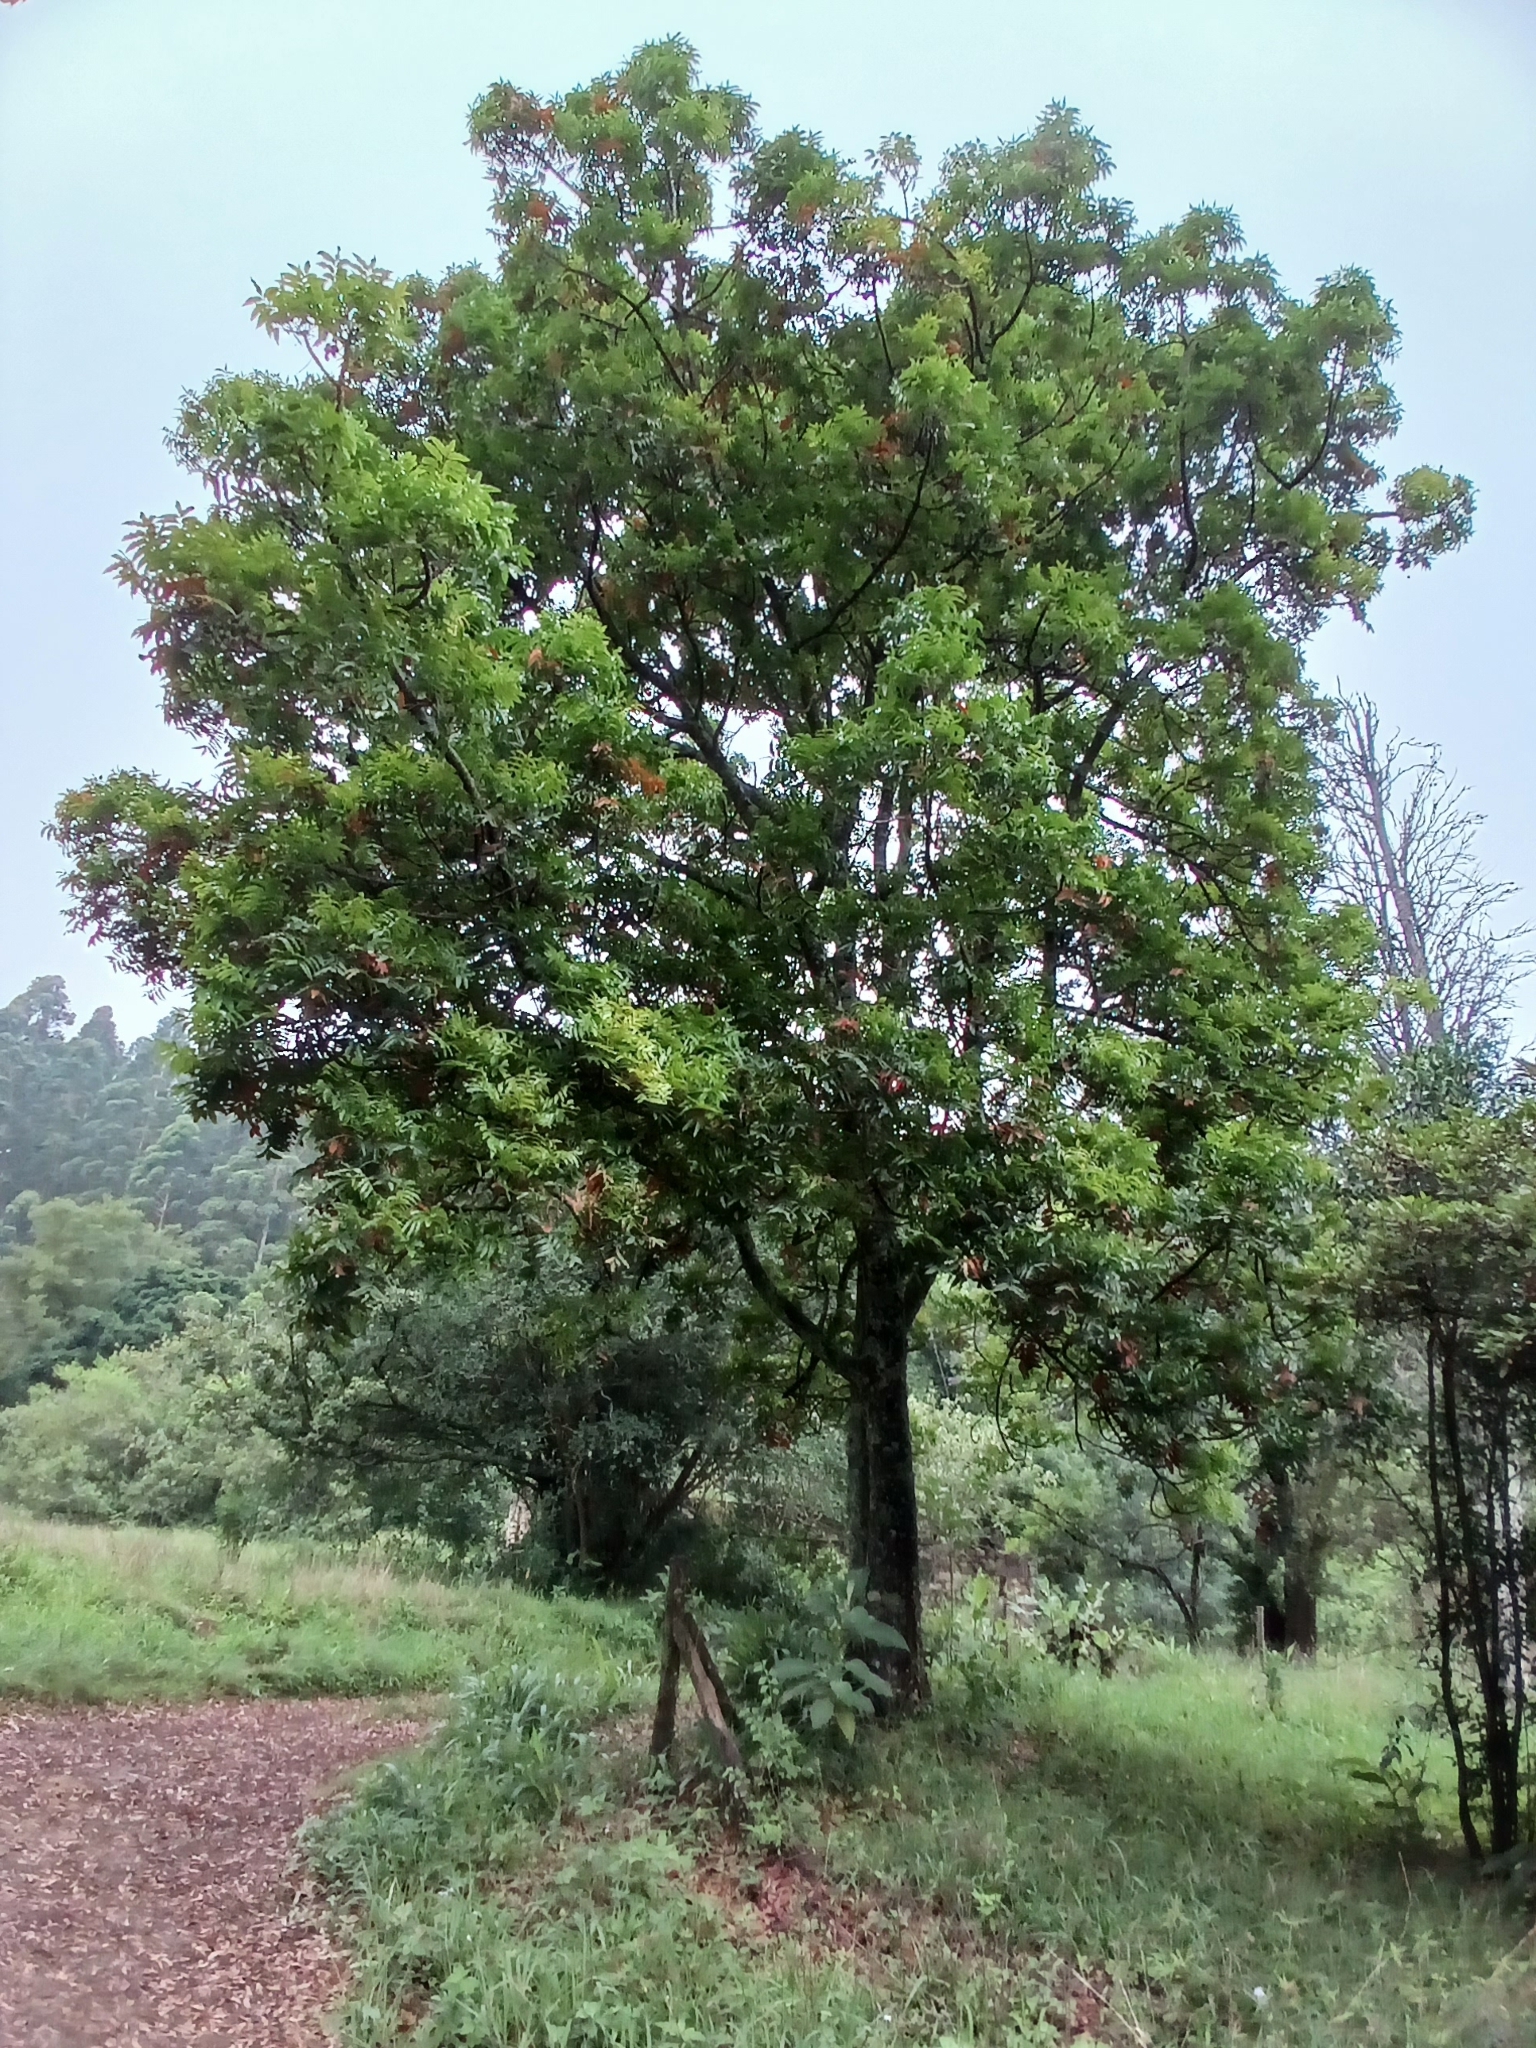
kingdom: Plantae
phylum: Tracheophyta
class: Magnoliopsida
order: Sapindales
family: Anacardiaceae
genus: Harpephyllum
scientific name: Harpephyllum caffrum
